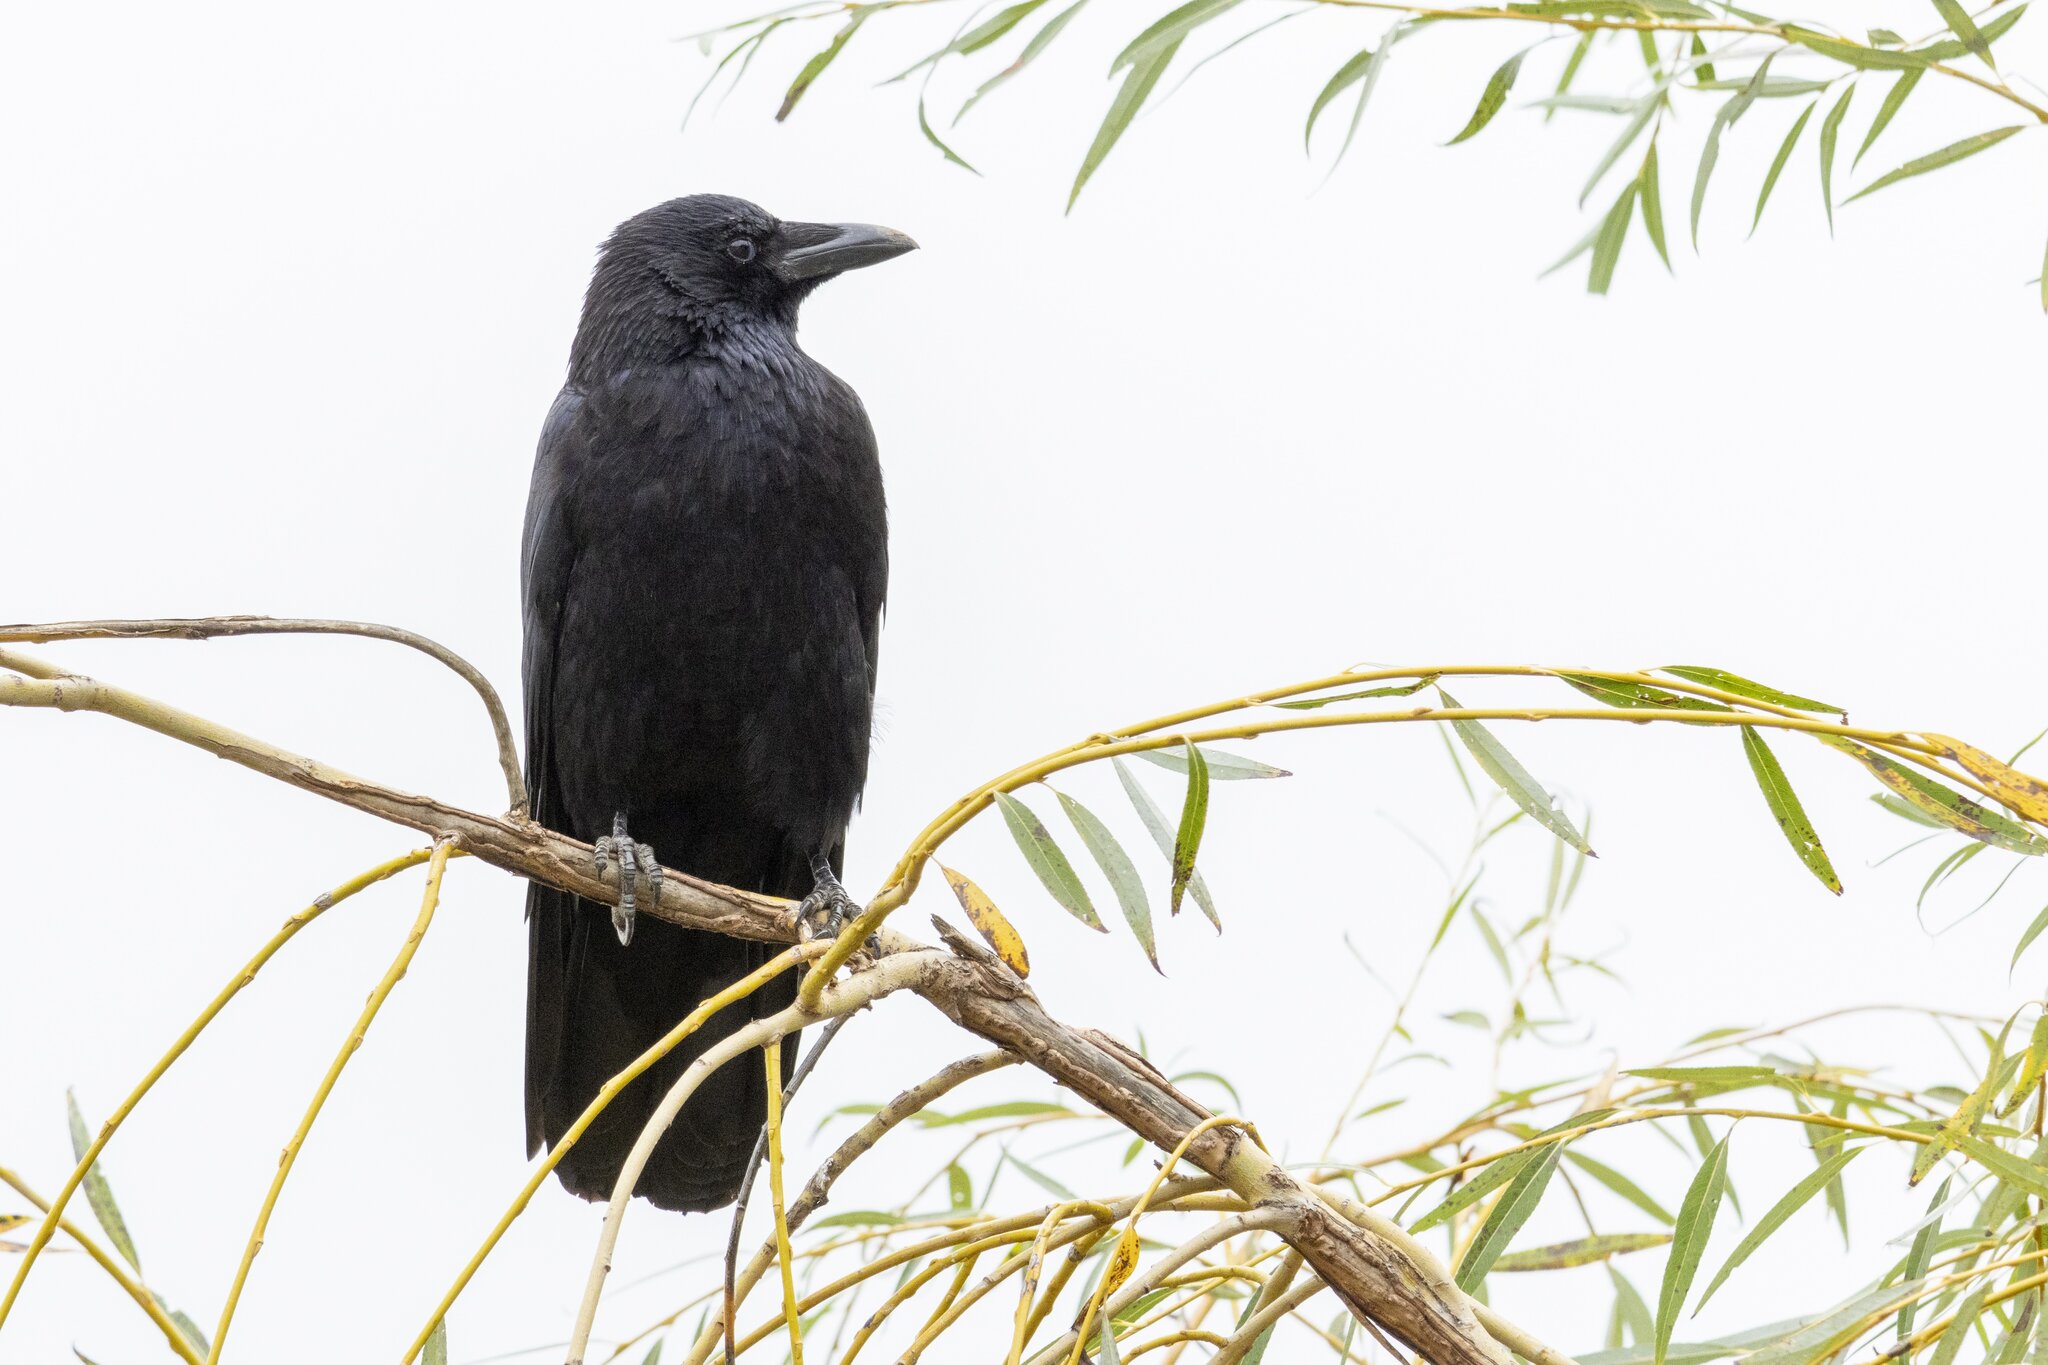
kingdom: Animalia
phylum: Chordata
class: Aves
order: Passeriformes
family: Corvidae
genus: Corvus
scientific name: Corvus corone
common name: Carrion crow
